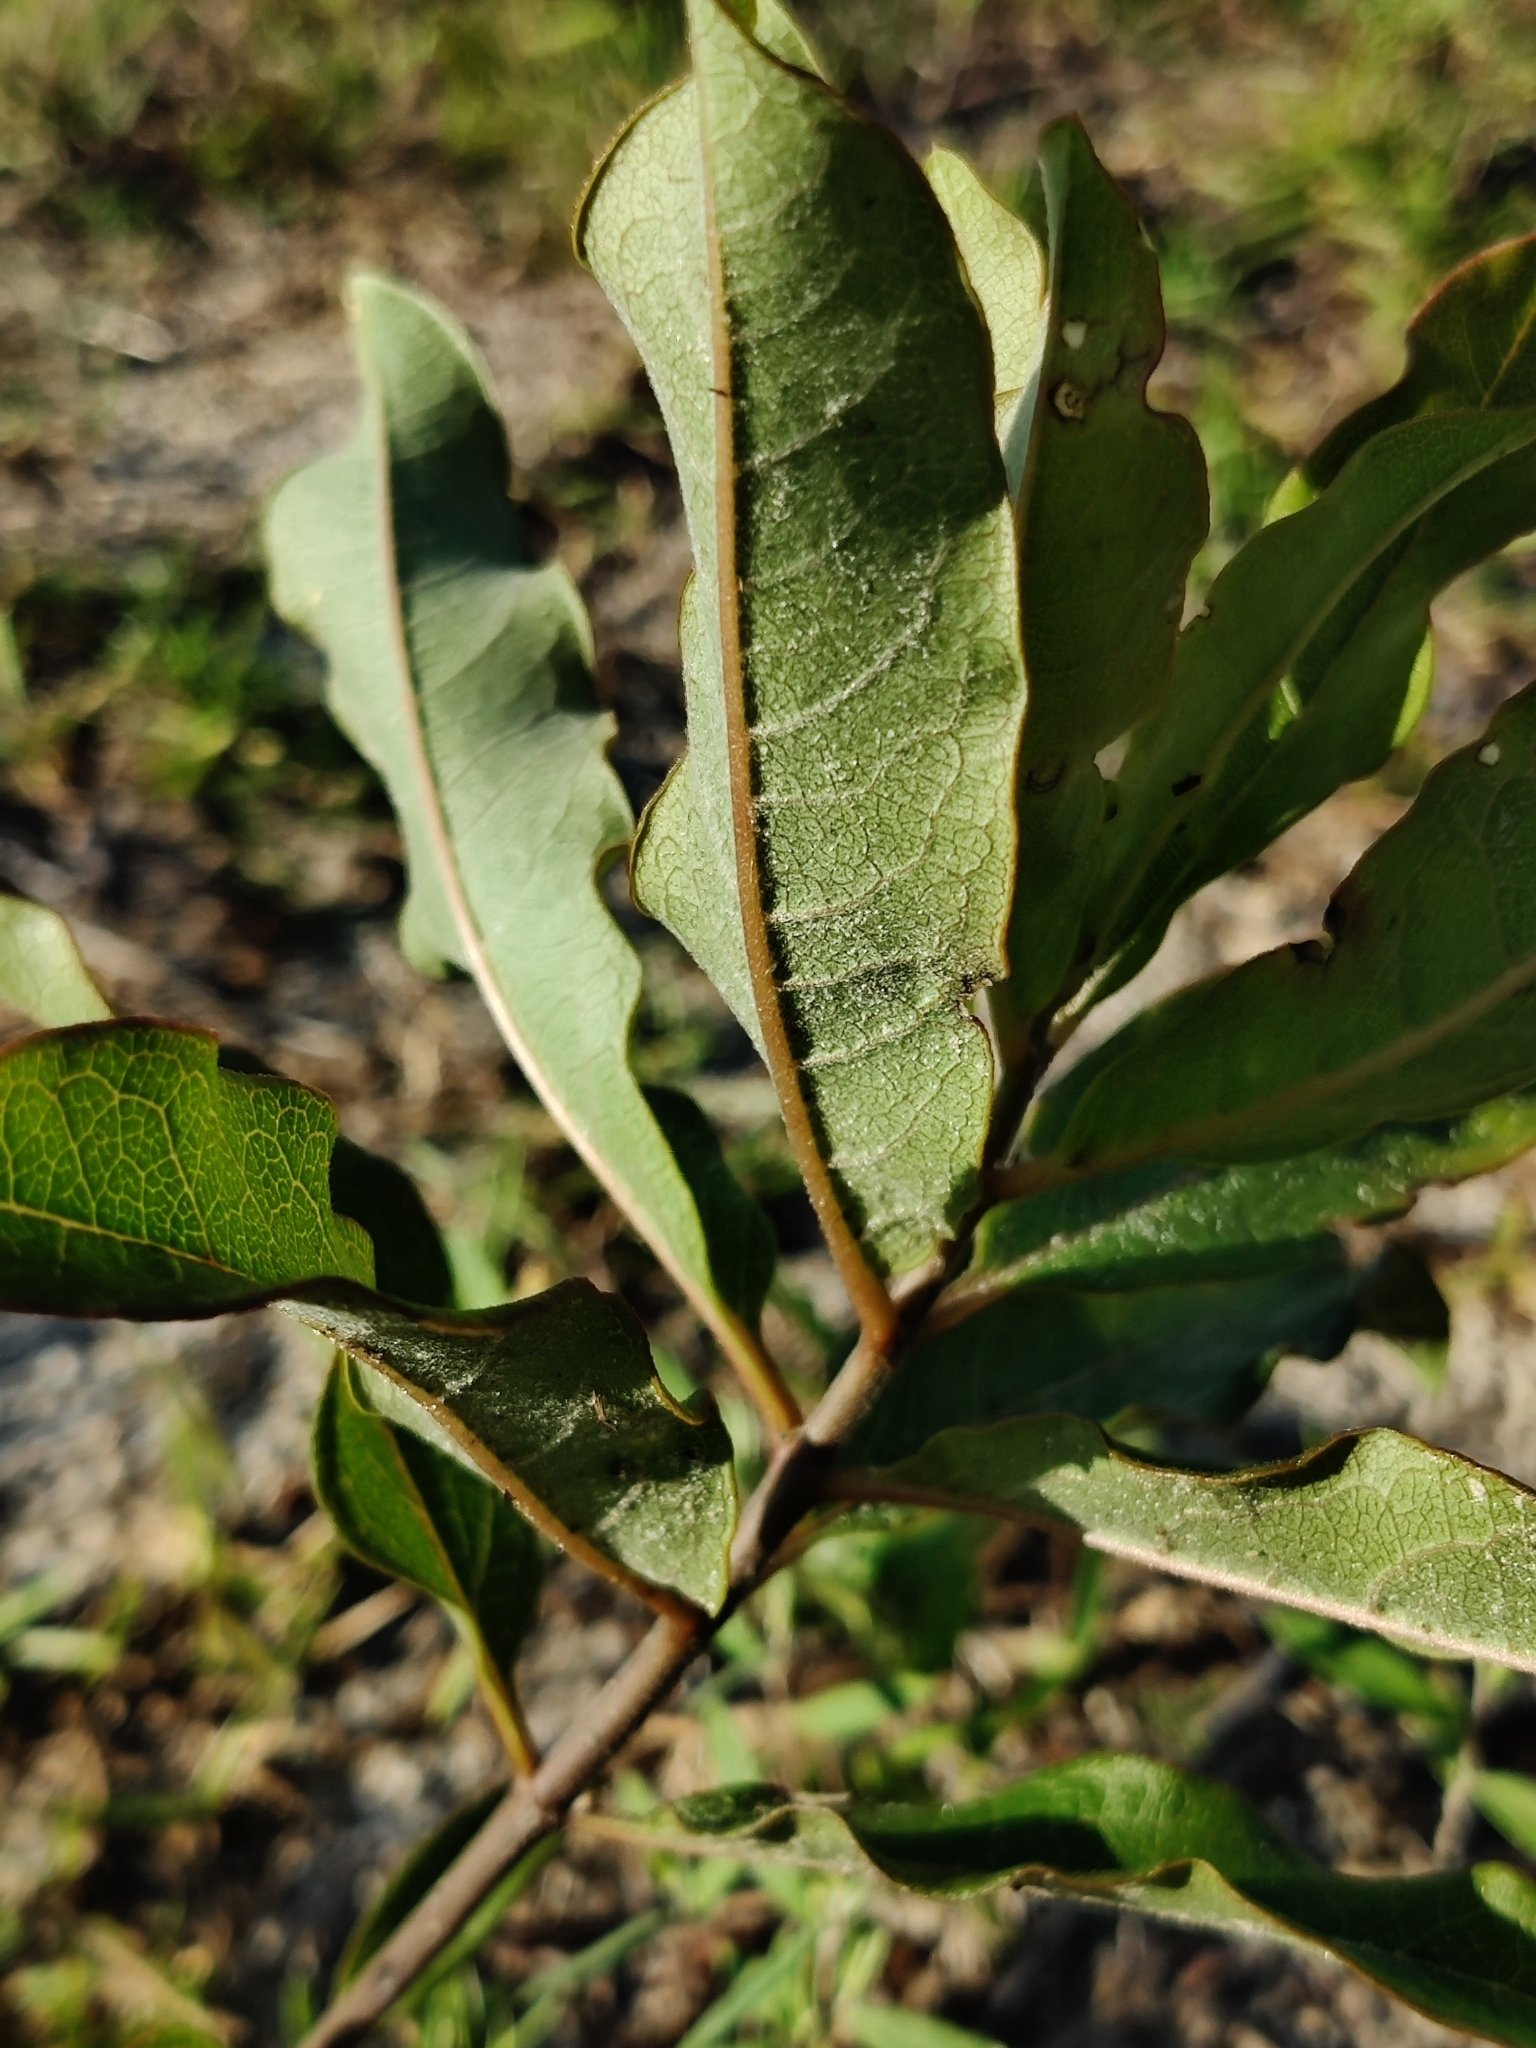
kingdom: Plantae
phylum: Tracheophyta
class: Magnoliopsida
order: Gentianales
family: Apocynaceae
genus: Asclepias
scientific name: Asclepias tomentosa
